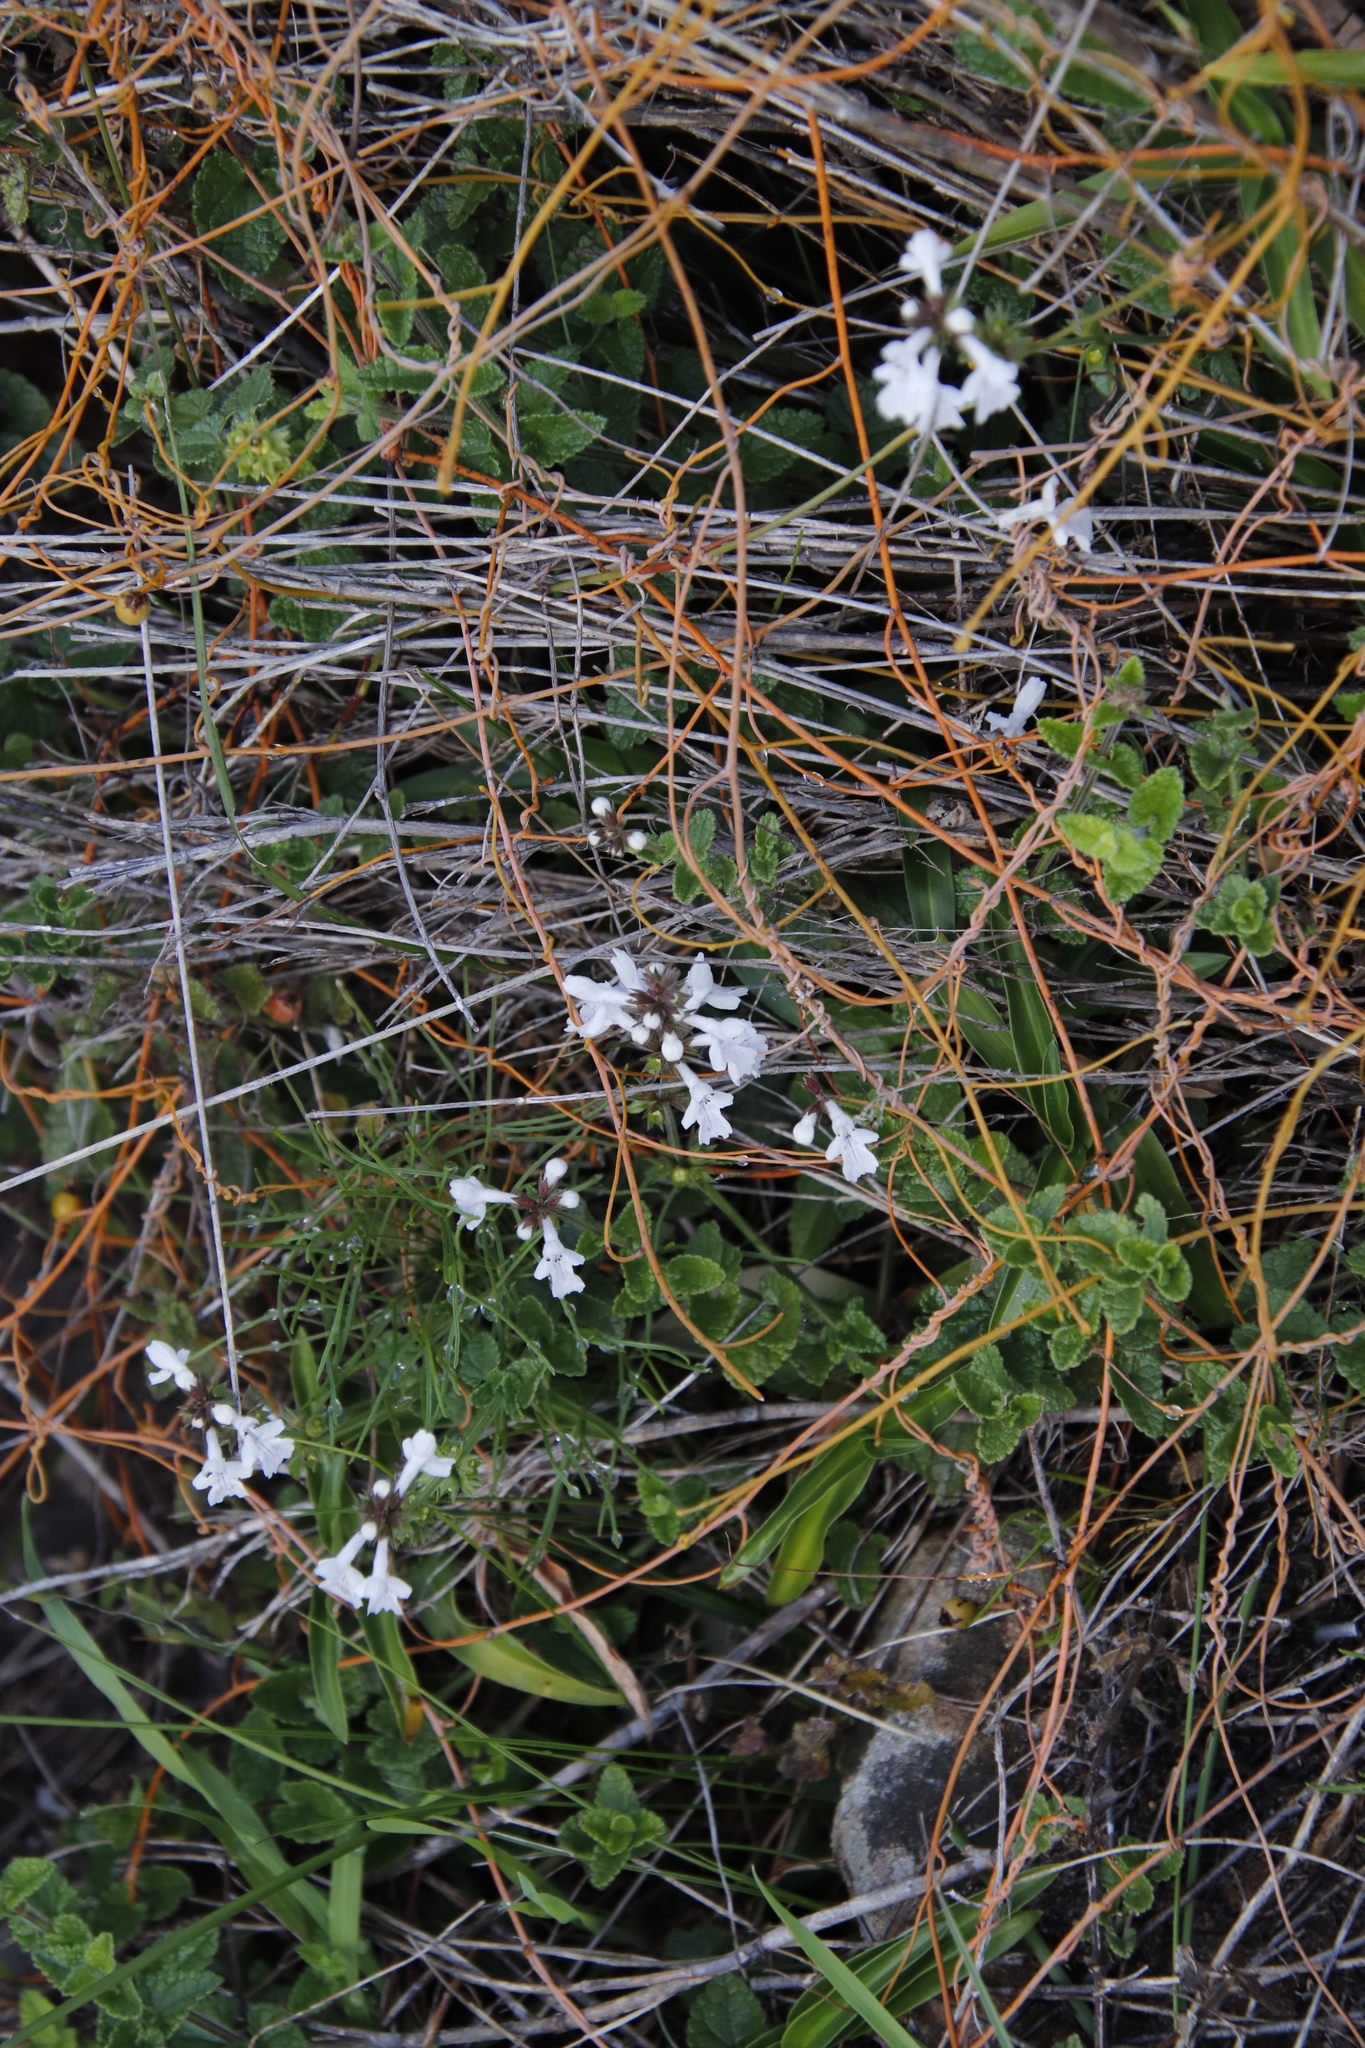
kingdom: Plantae
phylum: Tracheophyta
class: Magnoliopsida
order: Lamiales
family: Lamiaceae
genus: Stachys
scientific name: Stachys aethiopica
